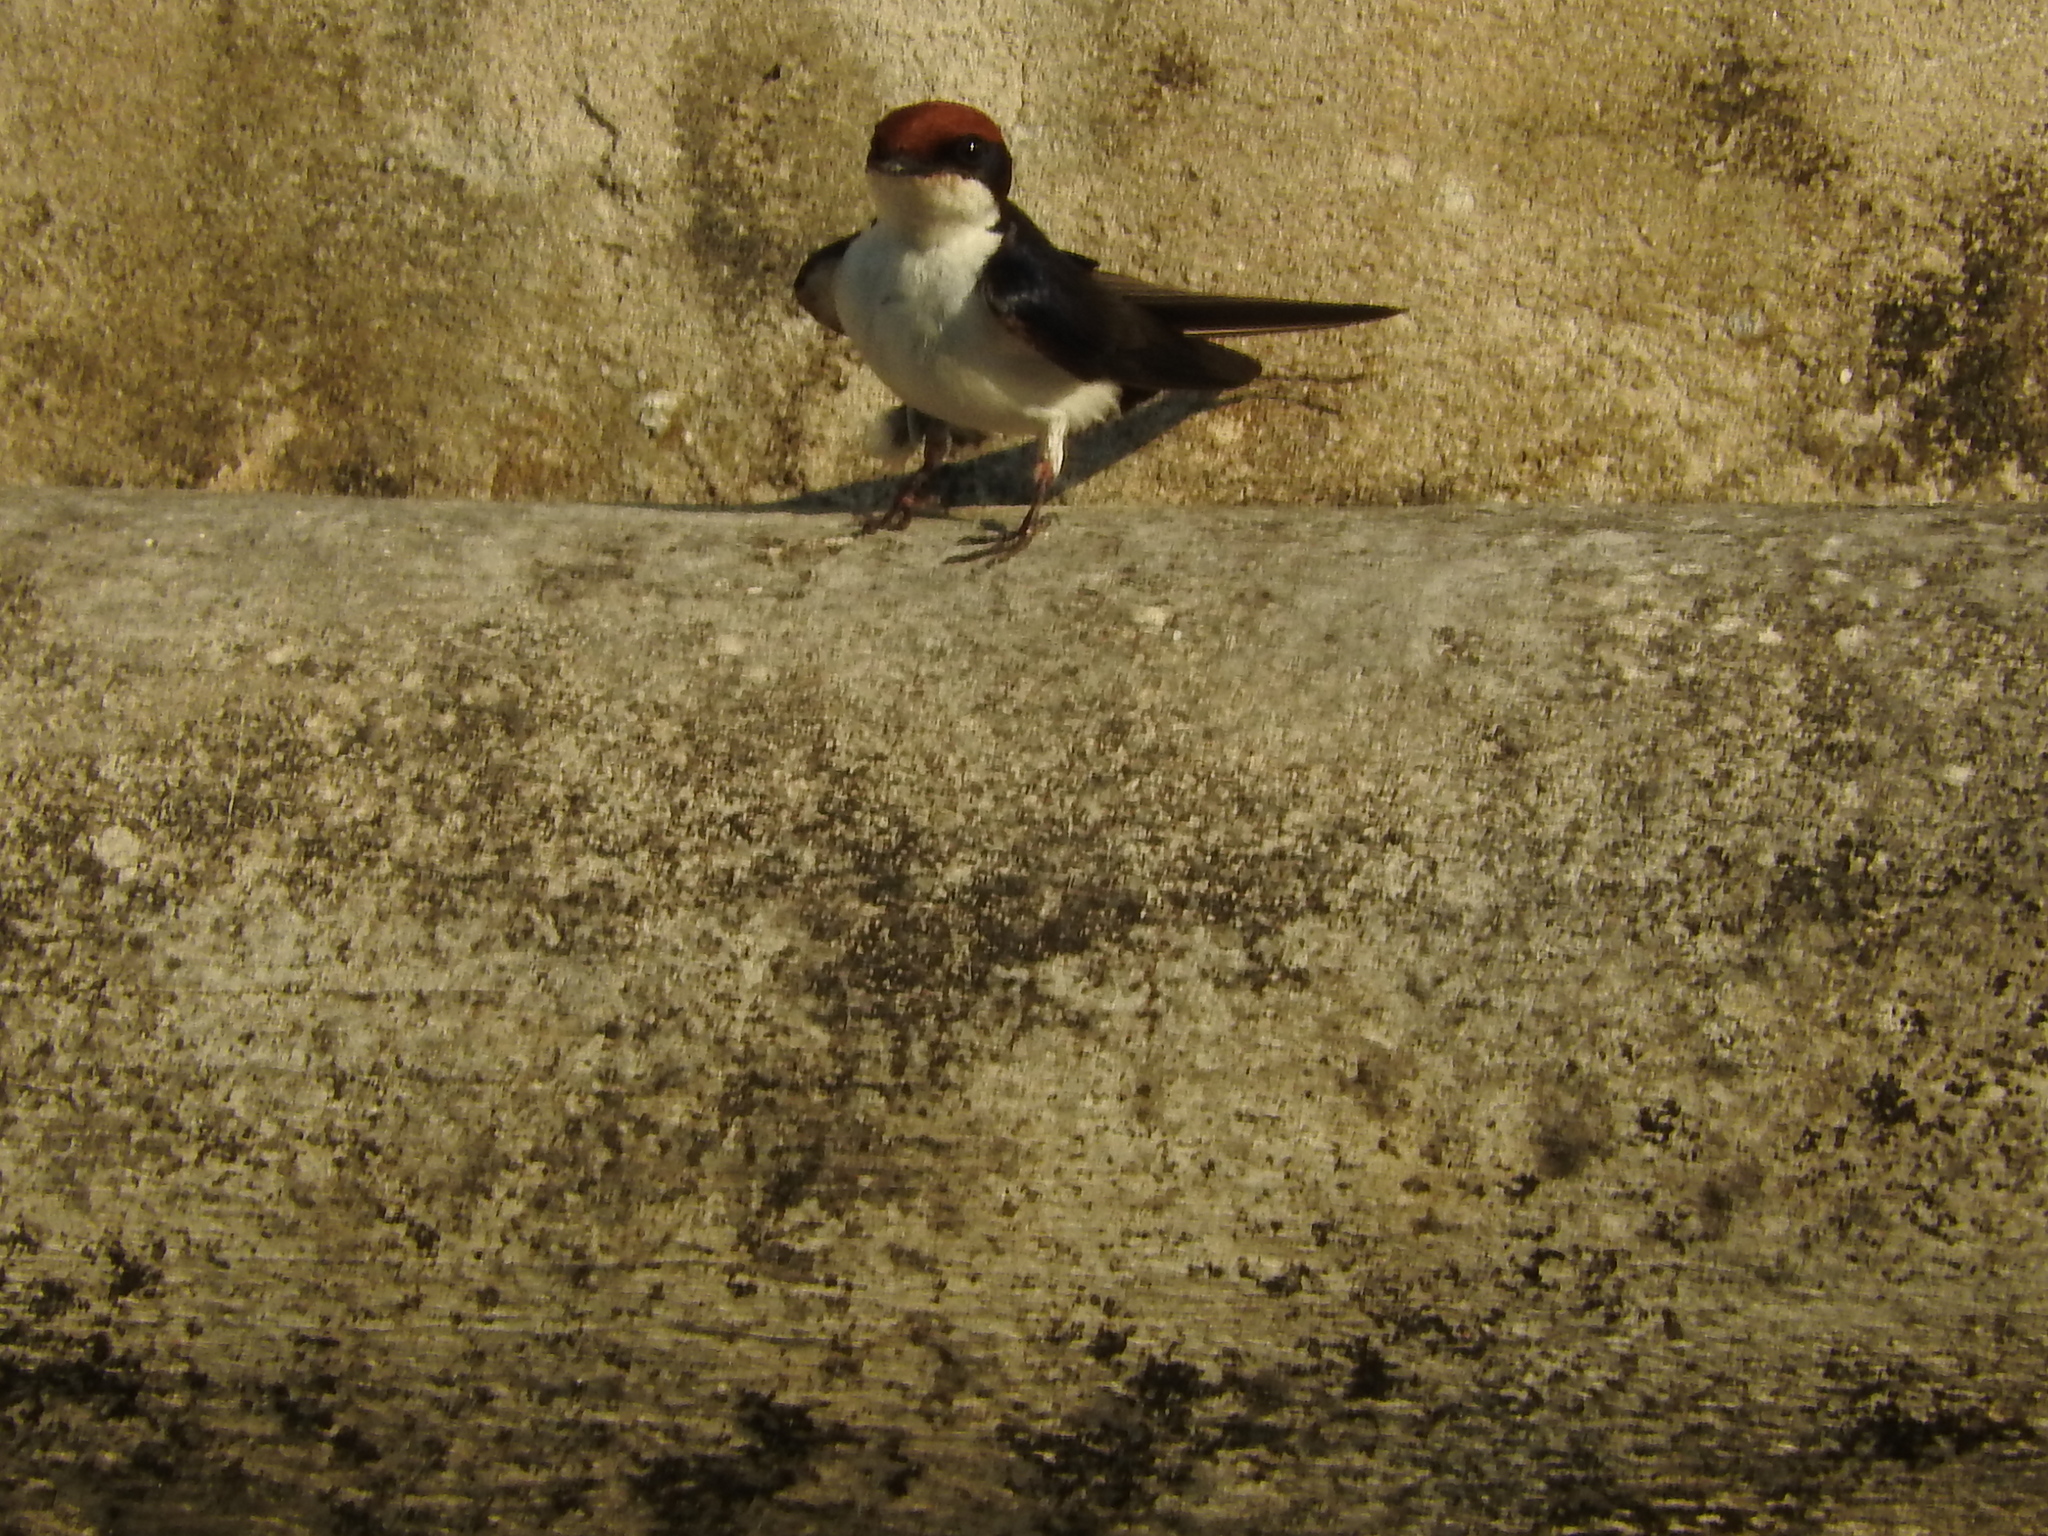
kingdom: Animalia
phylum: Chordata
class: Aves
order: Passeriformes
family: Hirundinidae
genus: Hirundo
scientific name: Hirundo smithii
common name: Wire-tailed swallow
